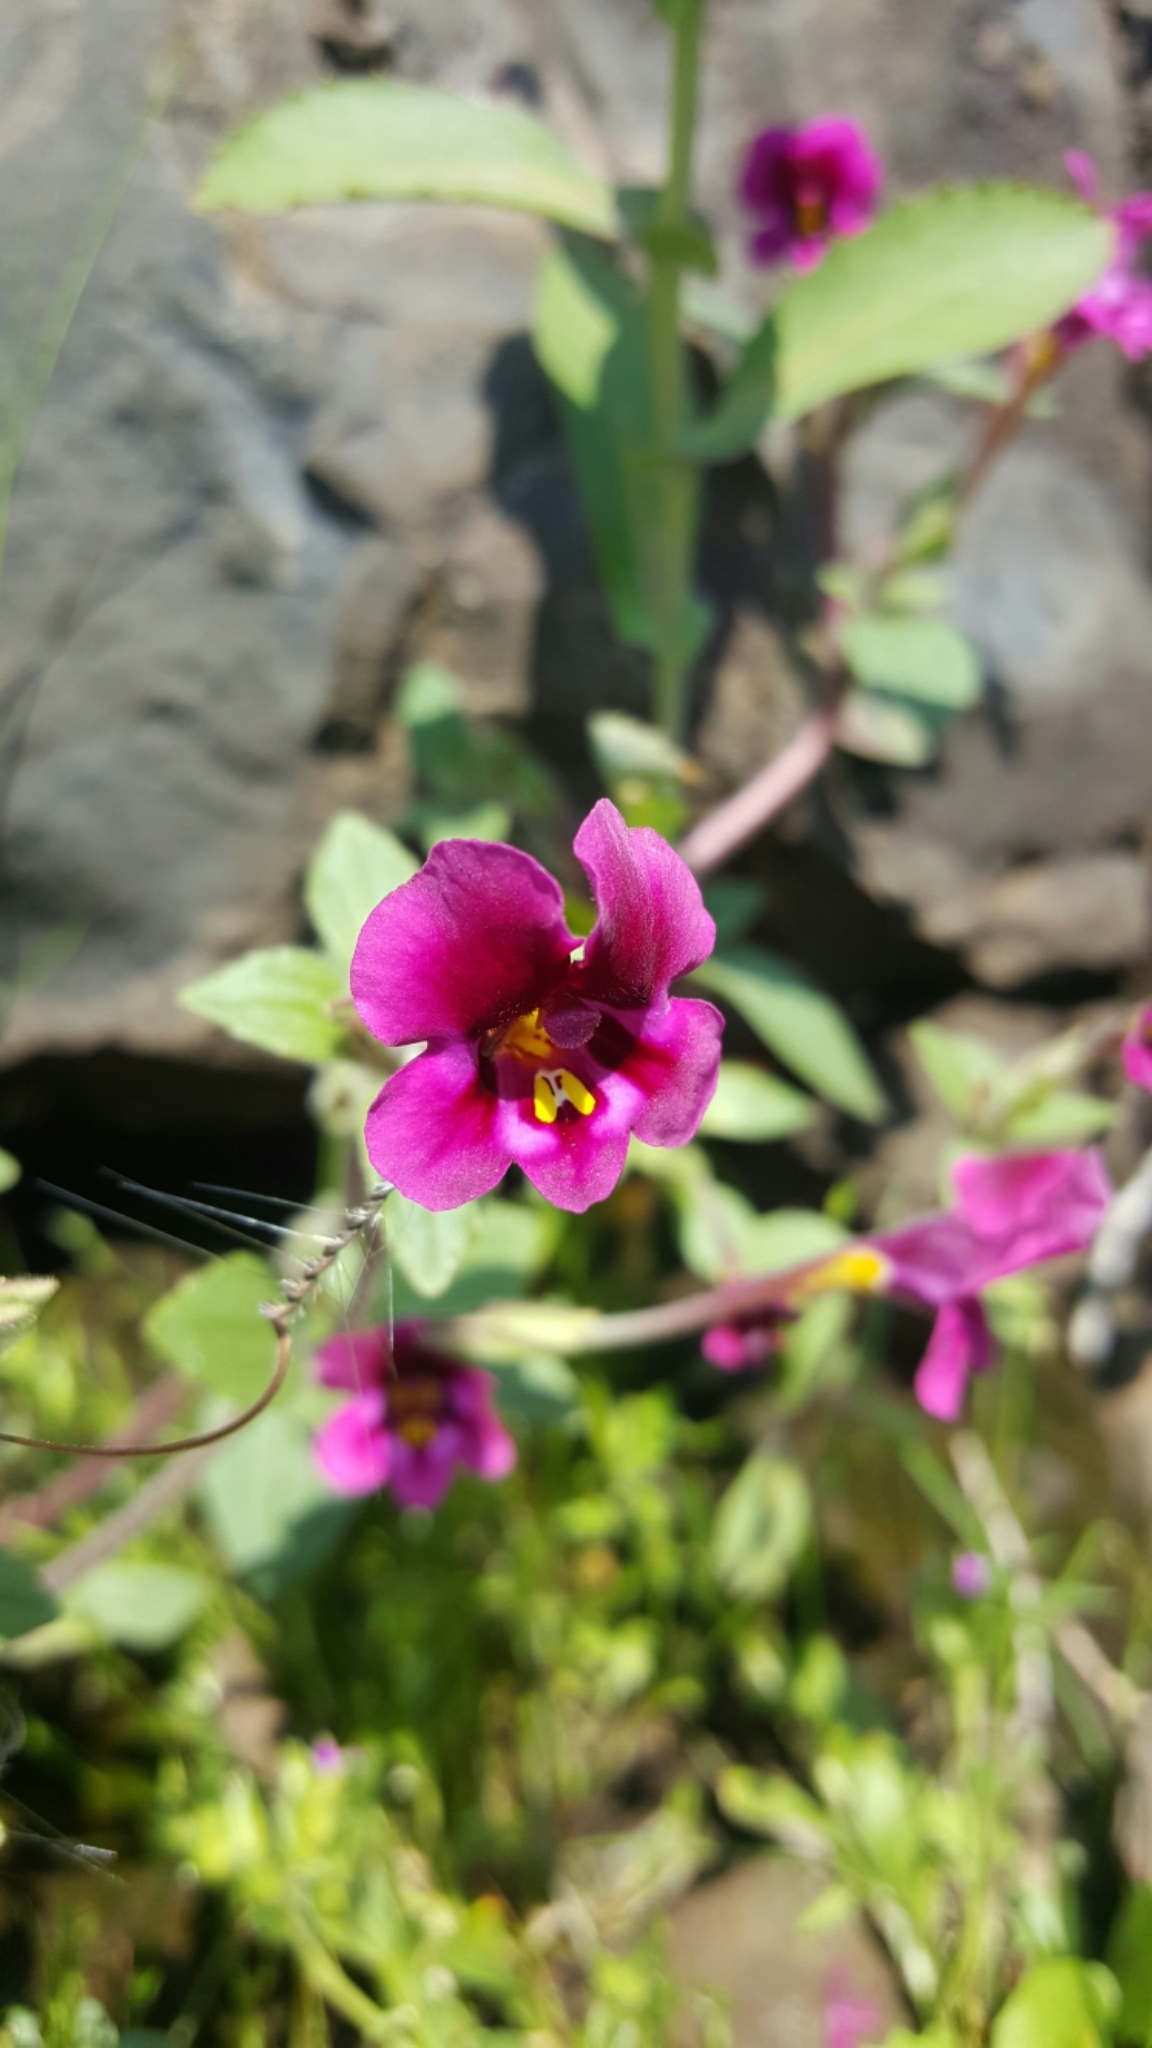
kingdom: Plantae
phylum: Tracheophyta
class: Magnoliopsida
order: Lamiales
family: Phrymaceae
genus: Diplacus
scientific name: Diplacus kelloggii
